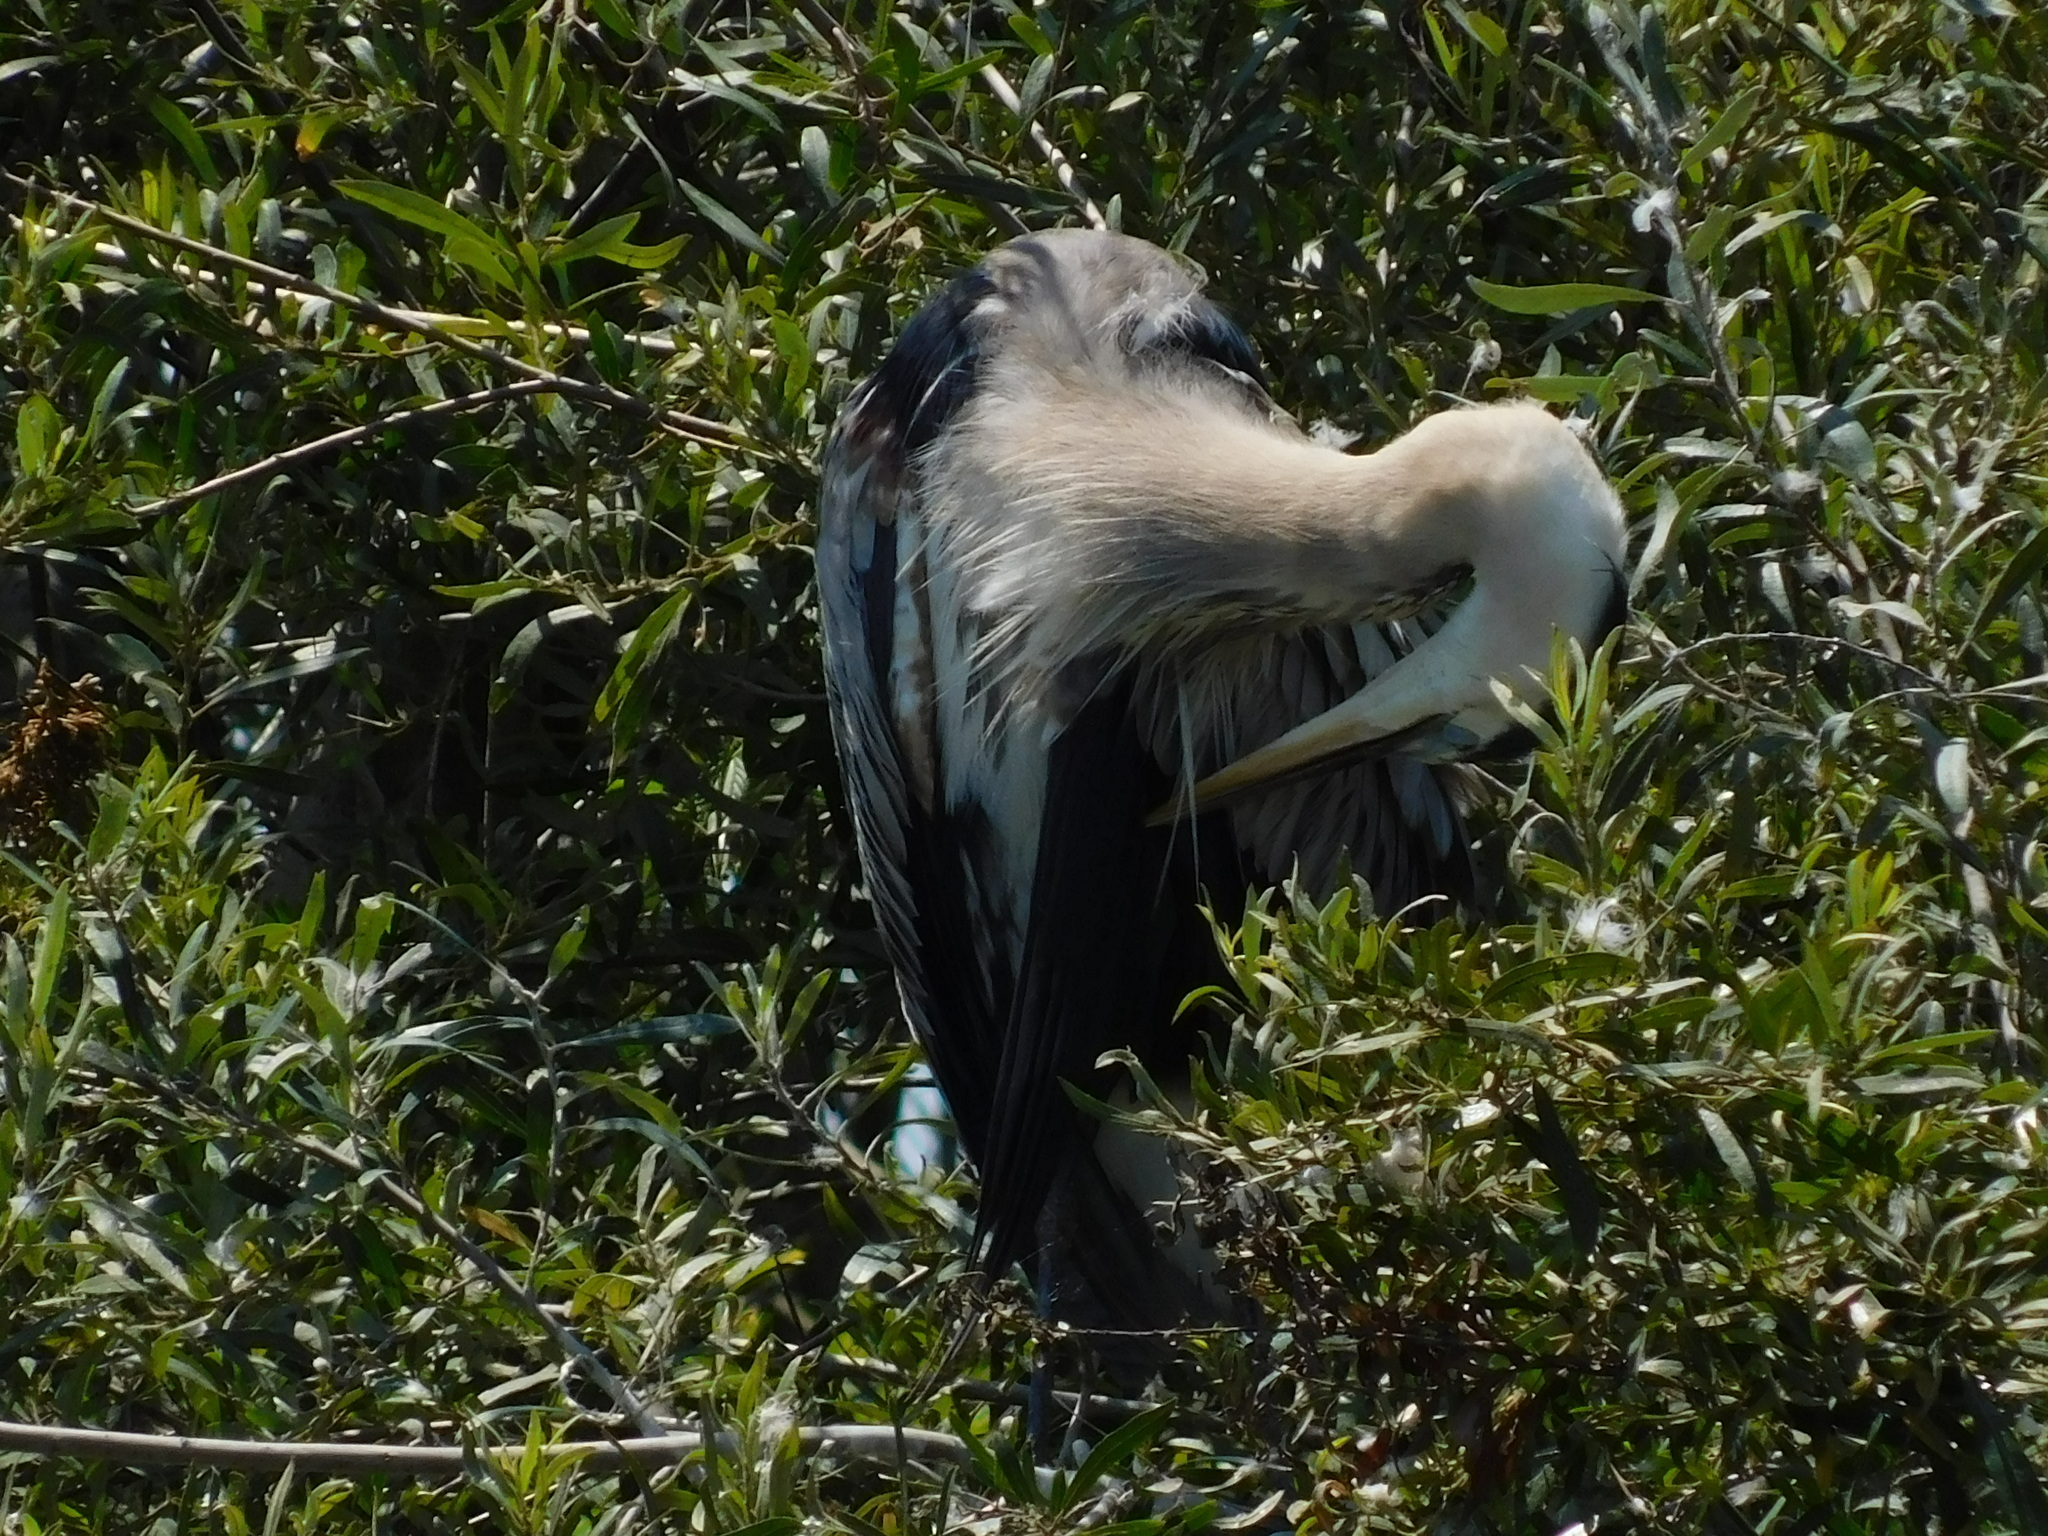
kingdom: Animalia
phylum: Chordata
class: Aves
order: Pelecaniformes
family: Ardeidae
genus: Ardea
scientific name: Ardea herodias
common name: Great blue heron
